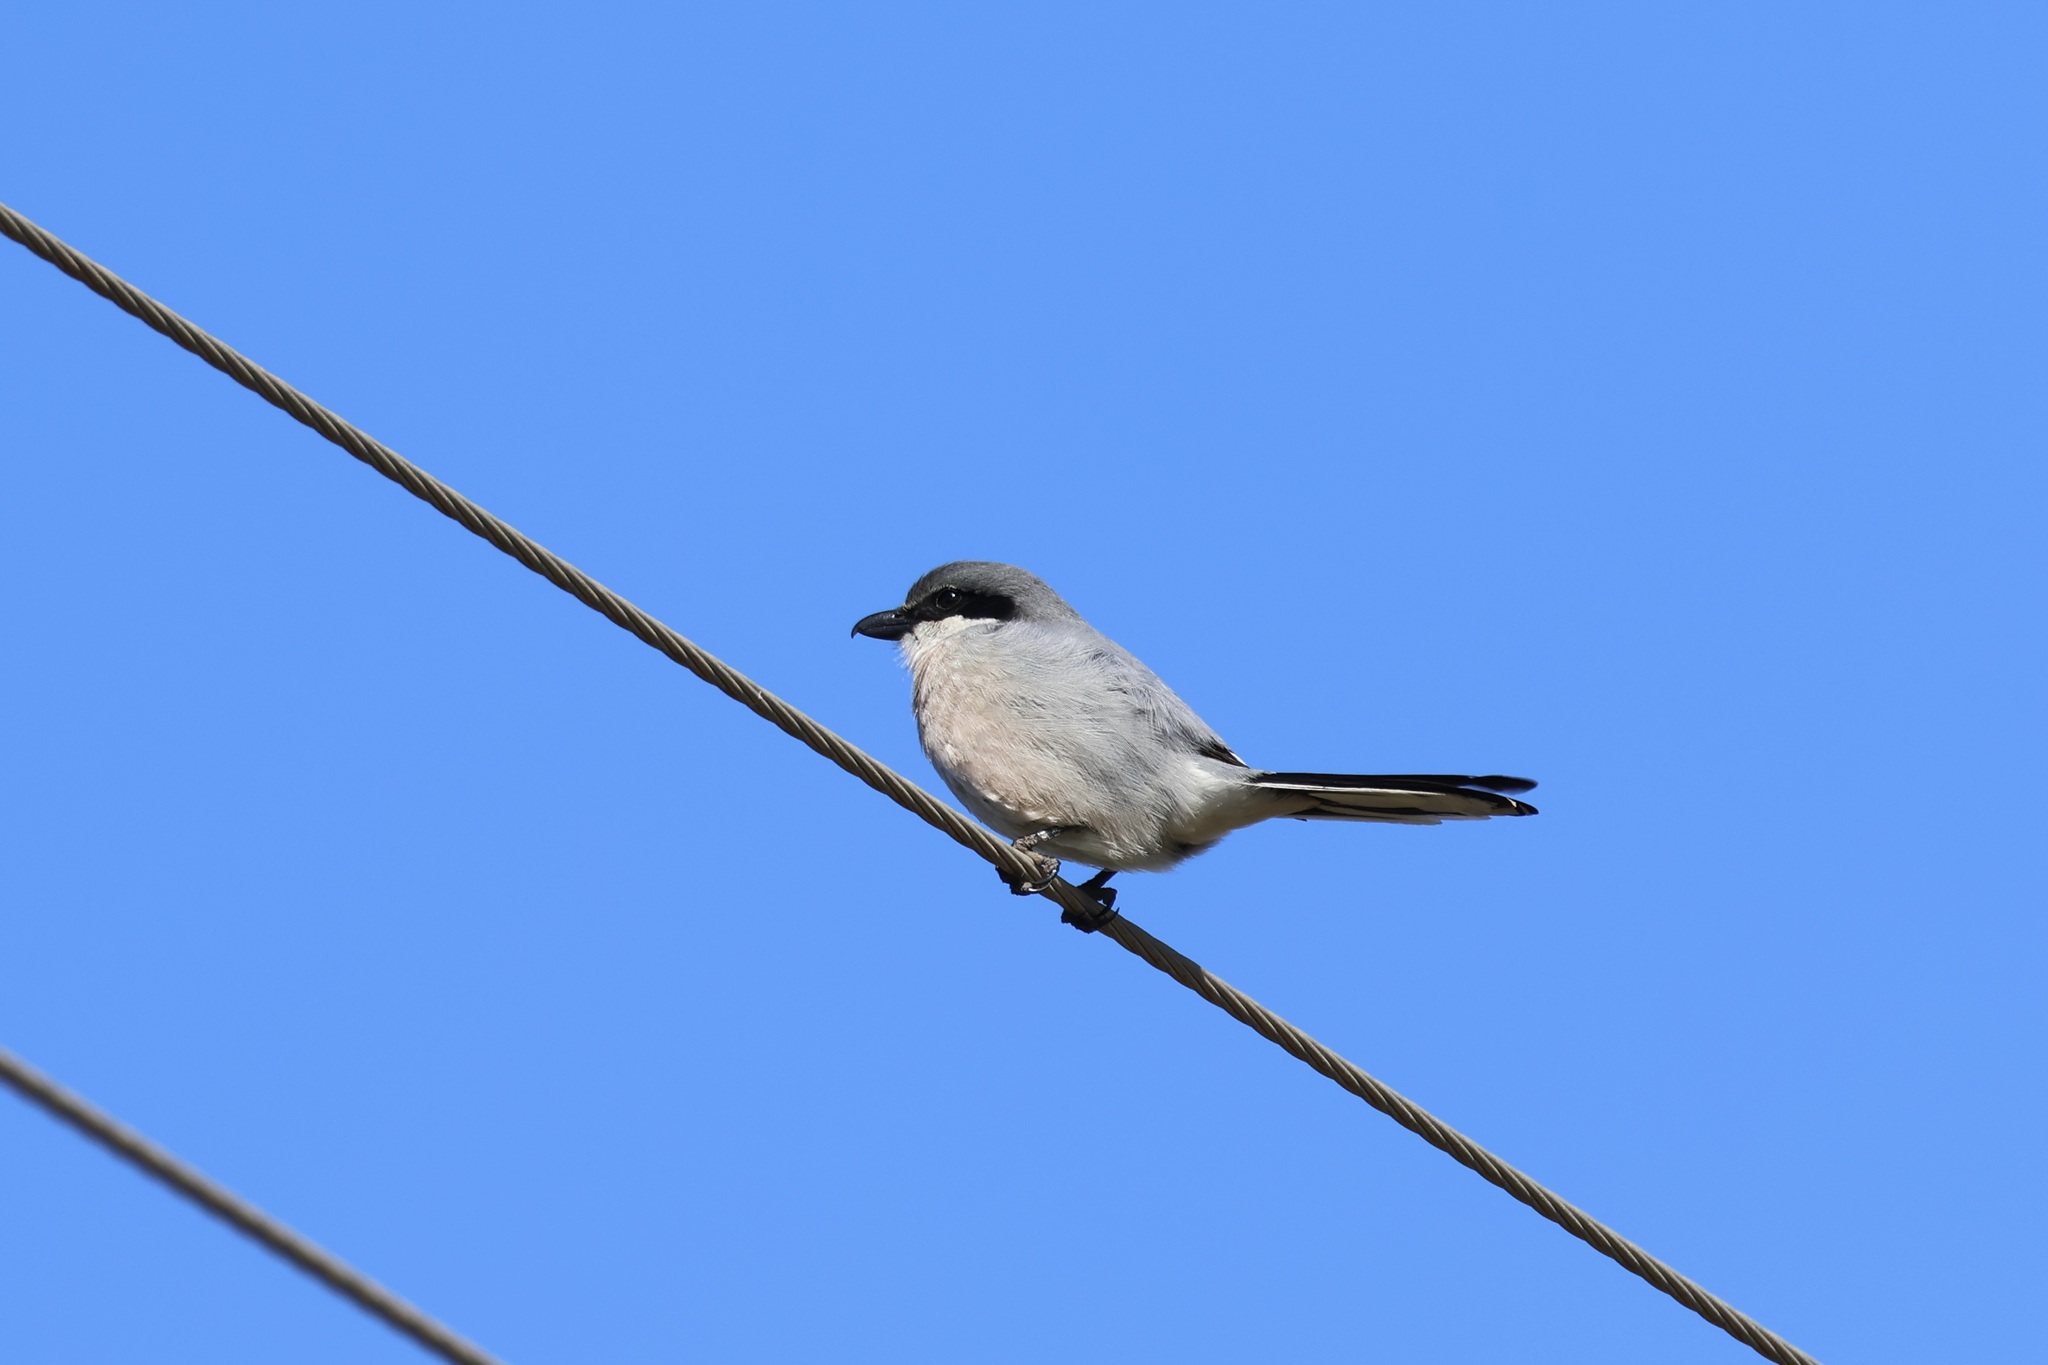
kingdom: Animalia
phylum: Chordata
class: Aves
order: Passeriformes
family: Laniidae
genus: Lanius
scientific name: Lanius meridionalis
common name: Iberian grey shrike
